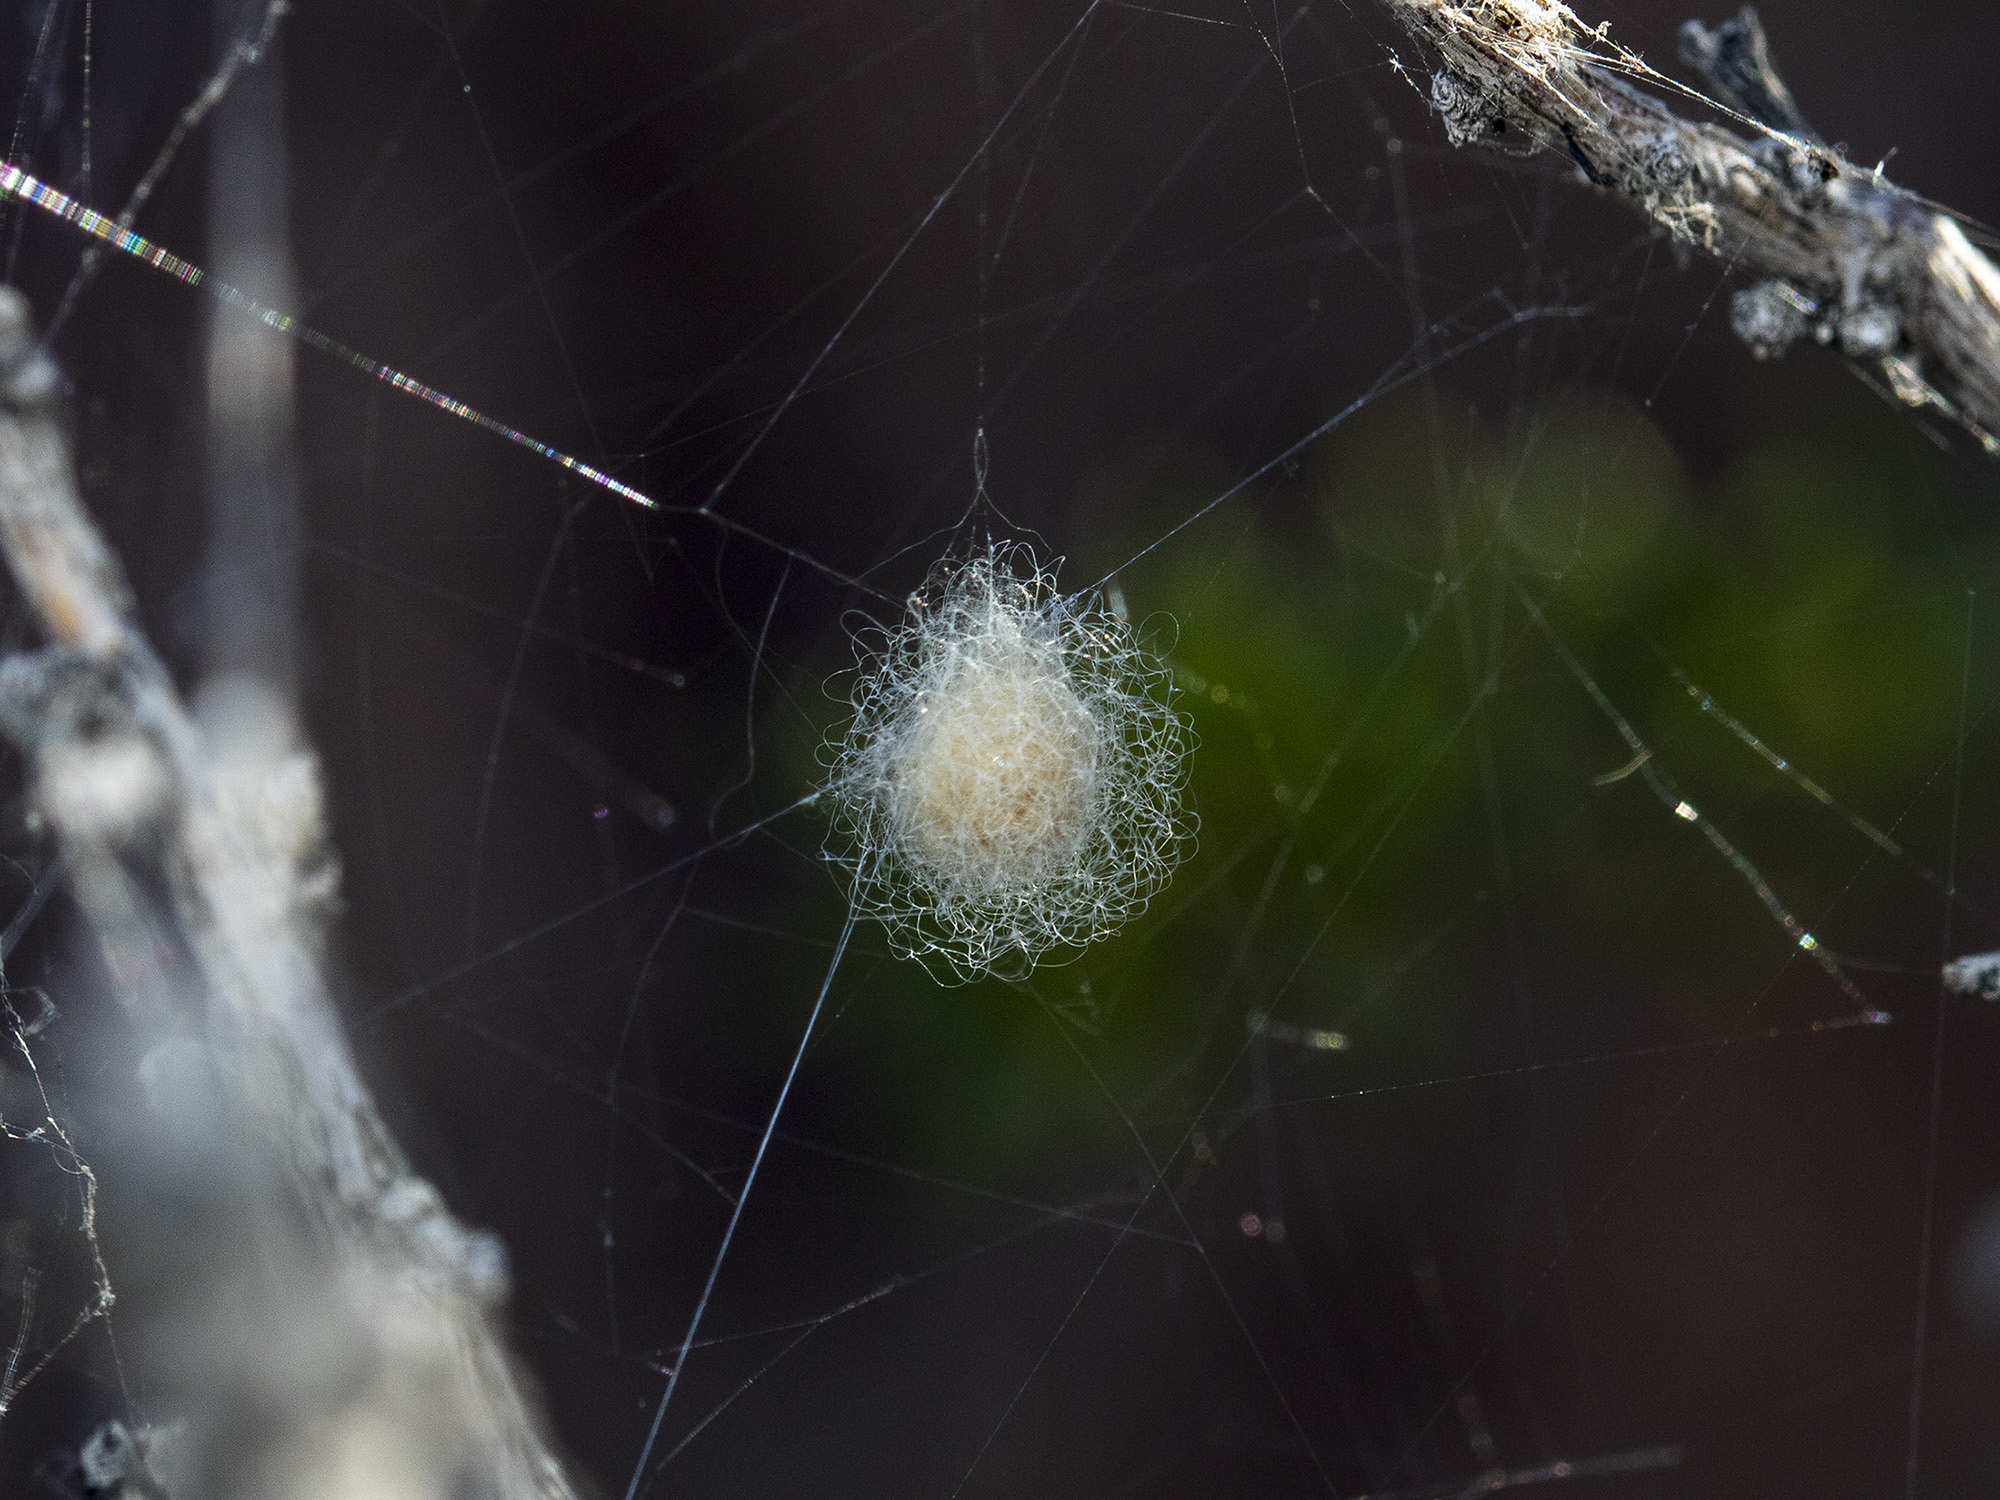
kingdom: Animalia
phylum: Arthropoda
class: Arachnida
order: Araneae
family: Araneidae
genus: Araneus
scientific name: Araneus pallasi
